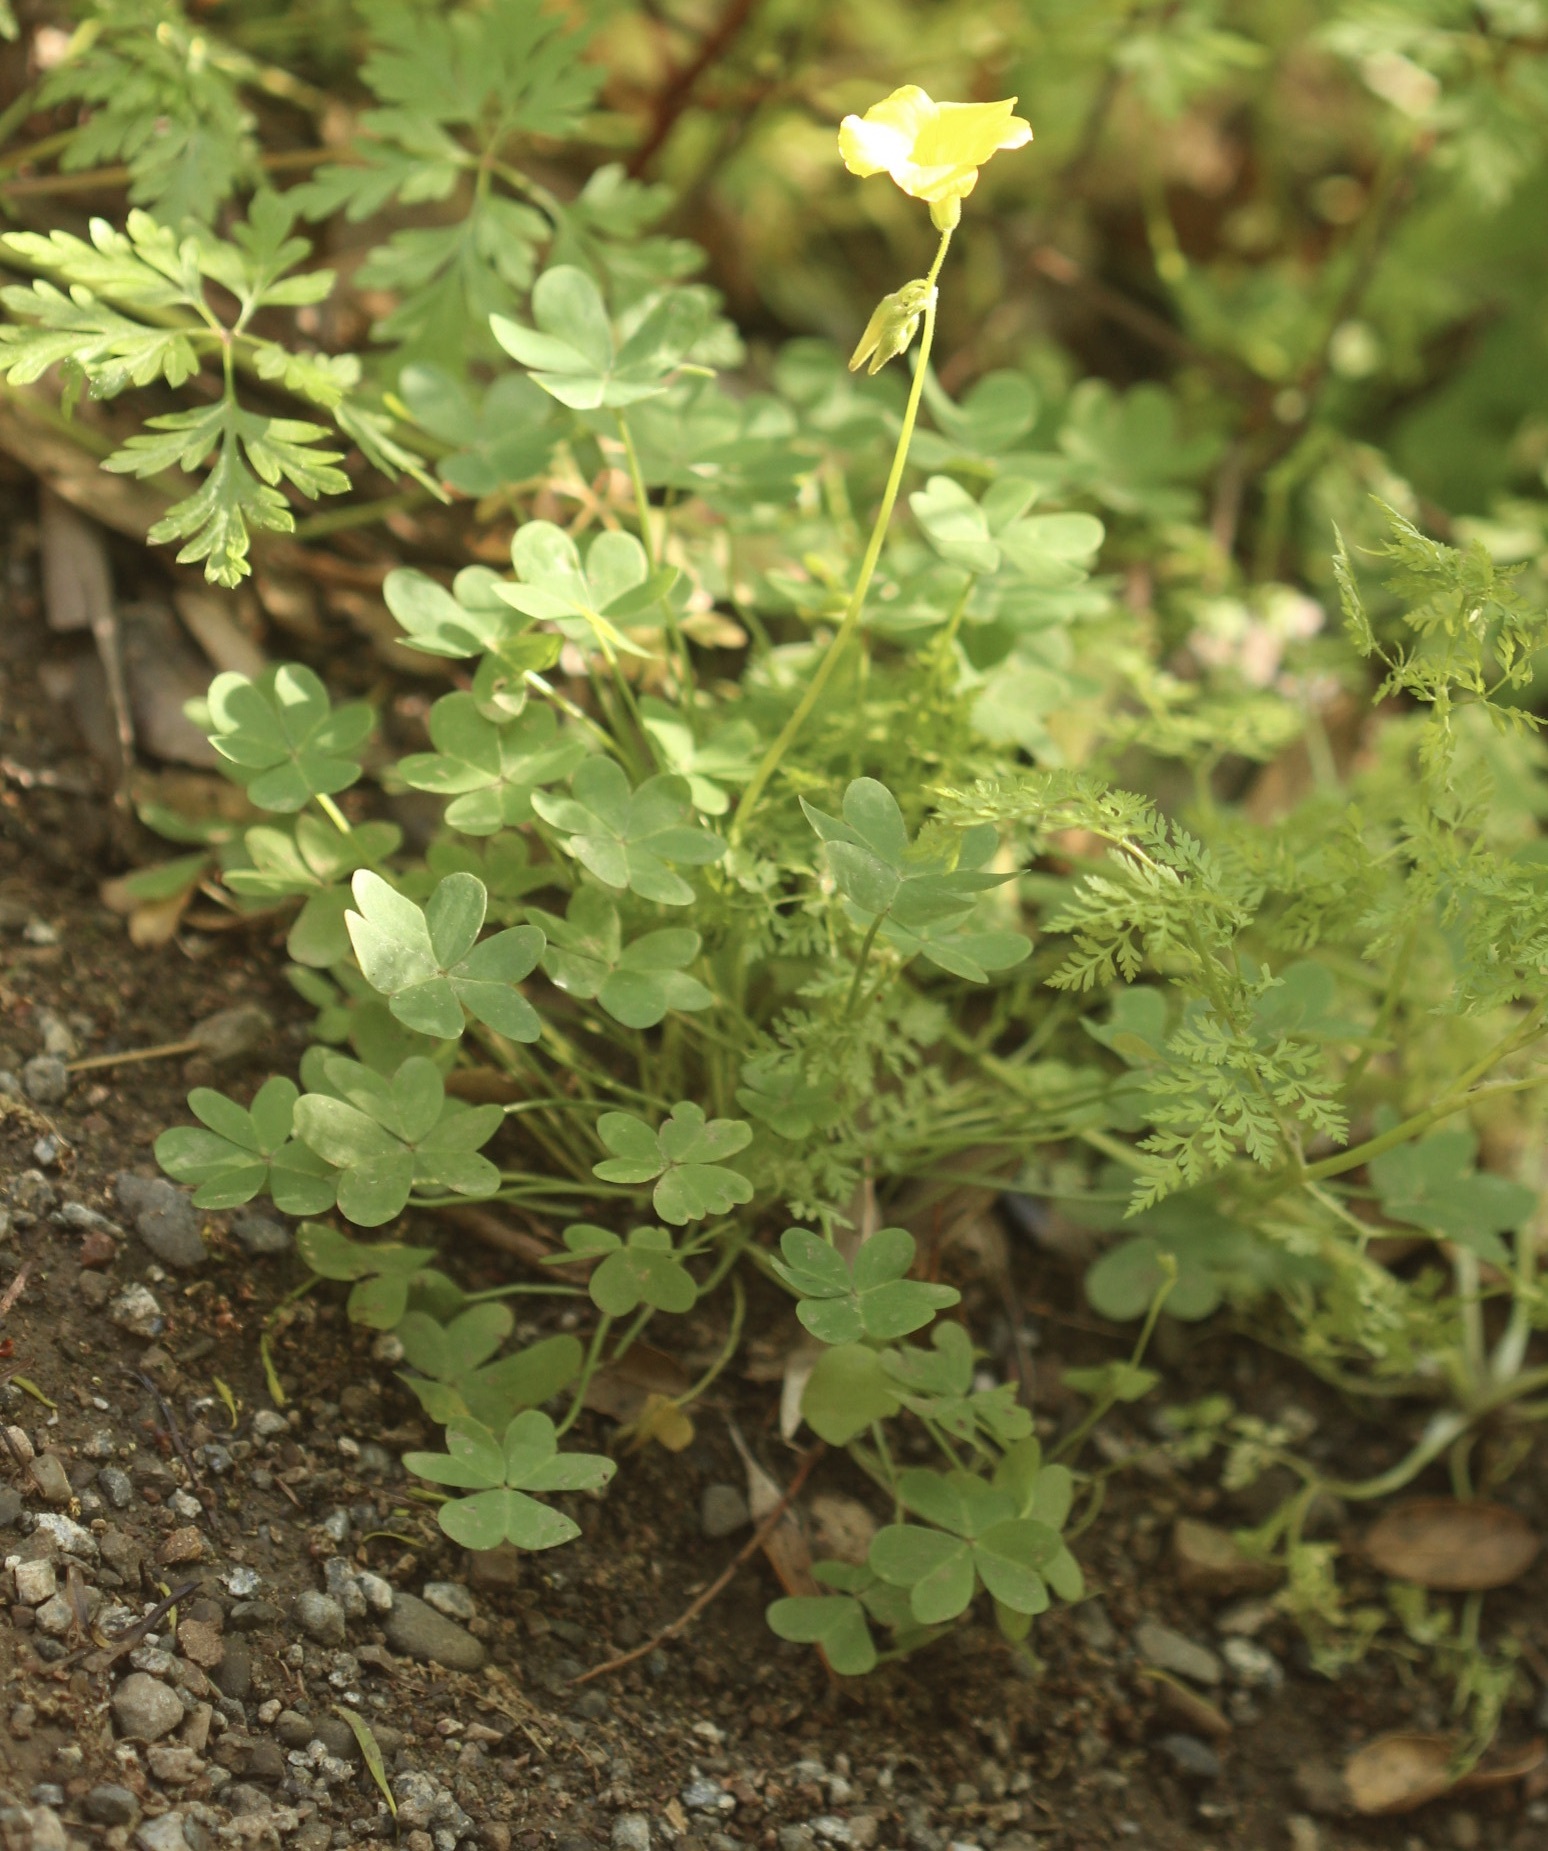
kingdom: Plantae
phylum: Tracheophyta
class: Magnoliopsida
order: Oxalidales
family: Oxalidaceae
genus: Oxalis
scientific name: Oxalis pes-caprae
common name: Bermuda-buttercup
